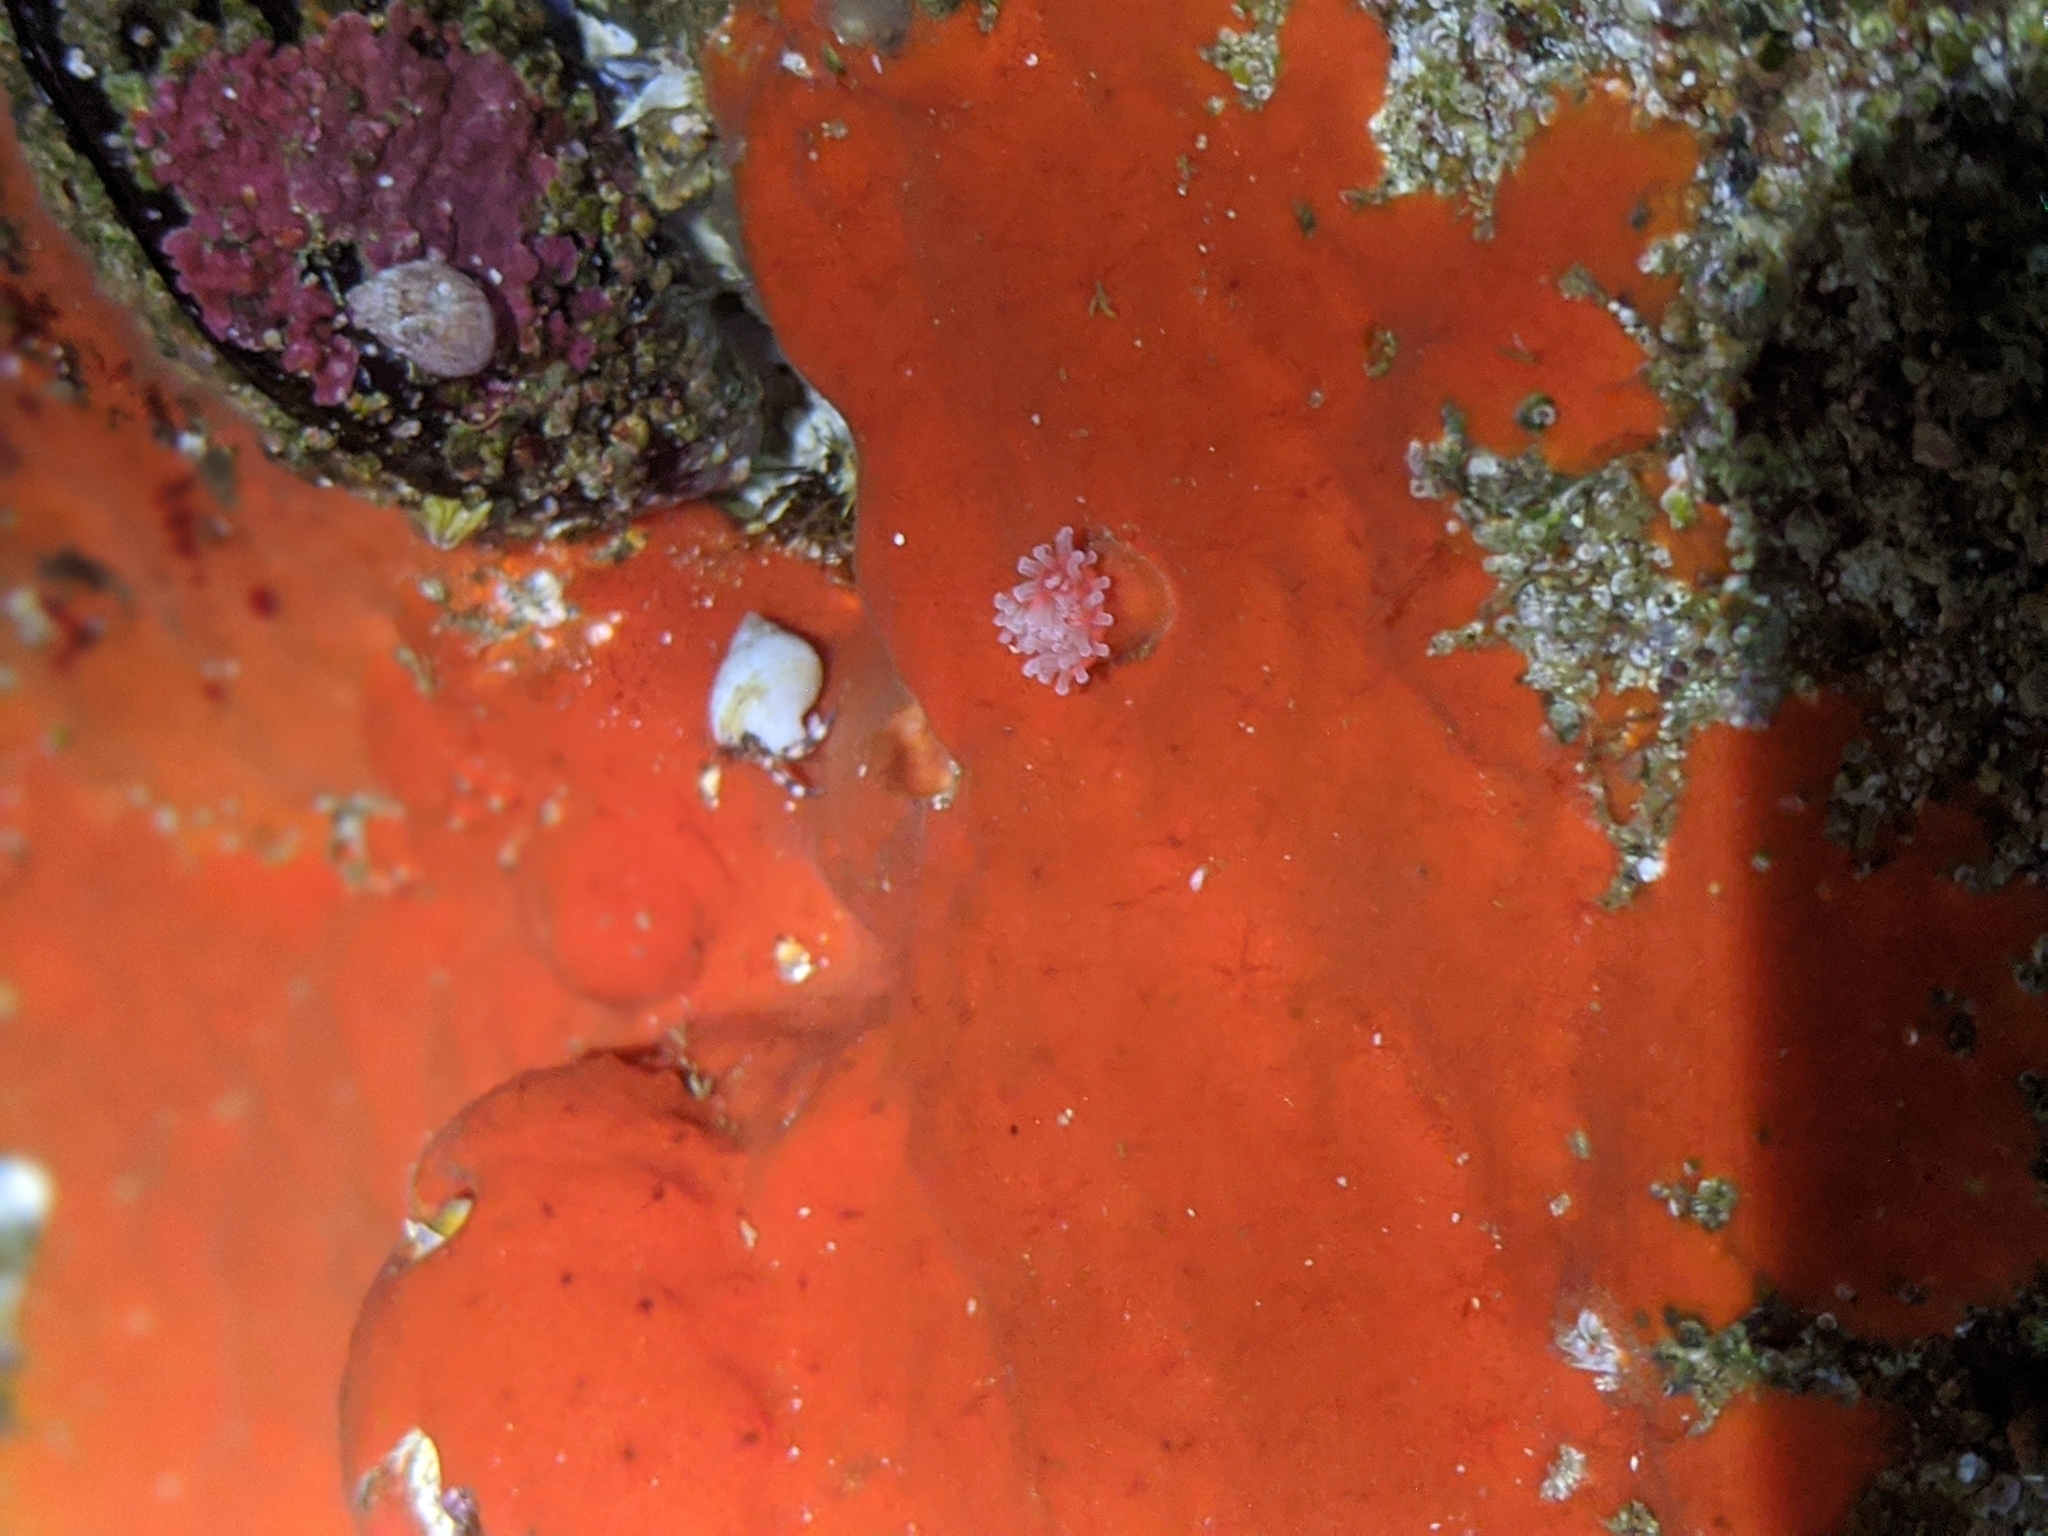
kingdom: Animalia
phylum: Cnidaria
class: Anthozoa
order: Corallimorpharia
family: Corallimorphidae
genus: Corynactis
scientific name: Corynactis californica
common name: Strawberry corallimorpharian
